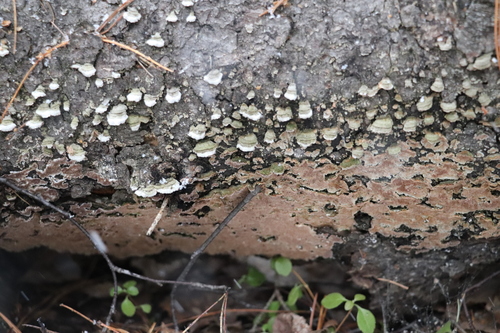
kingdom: Fungi
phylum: Basidiomycota
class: Agaricomycetes
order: Hymenochaetales
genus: Trichaptum
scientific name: Trichaptum fuscoviolaceum
